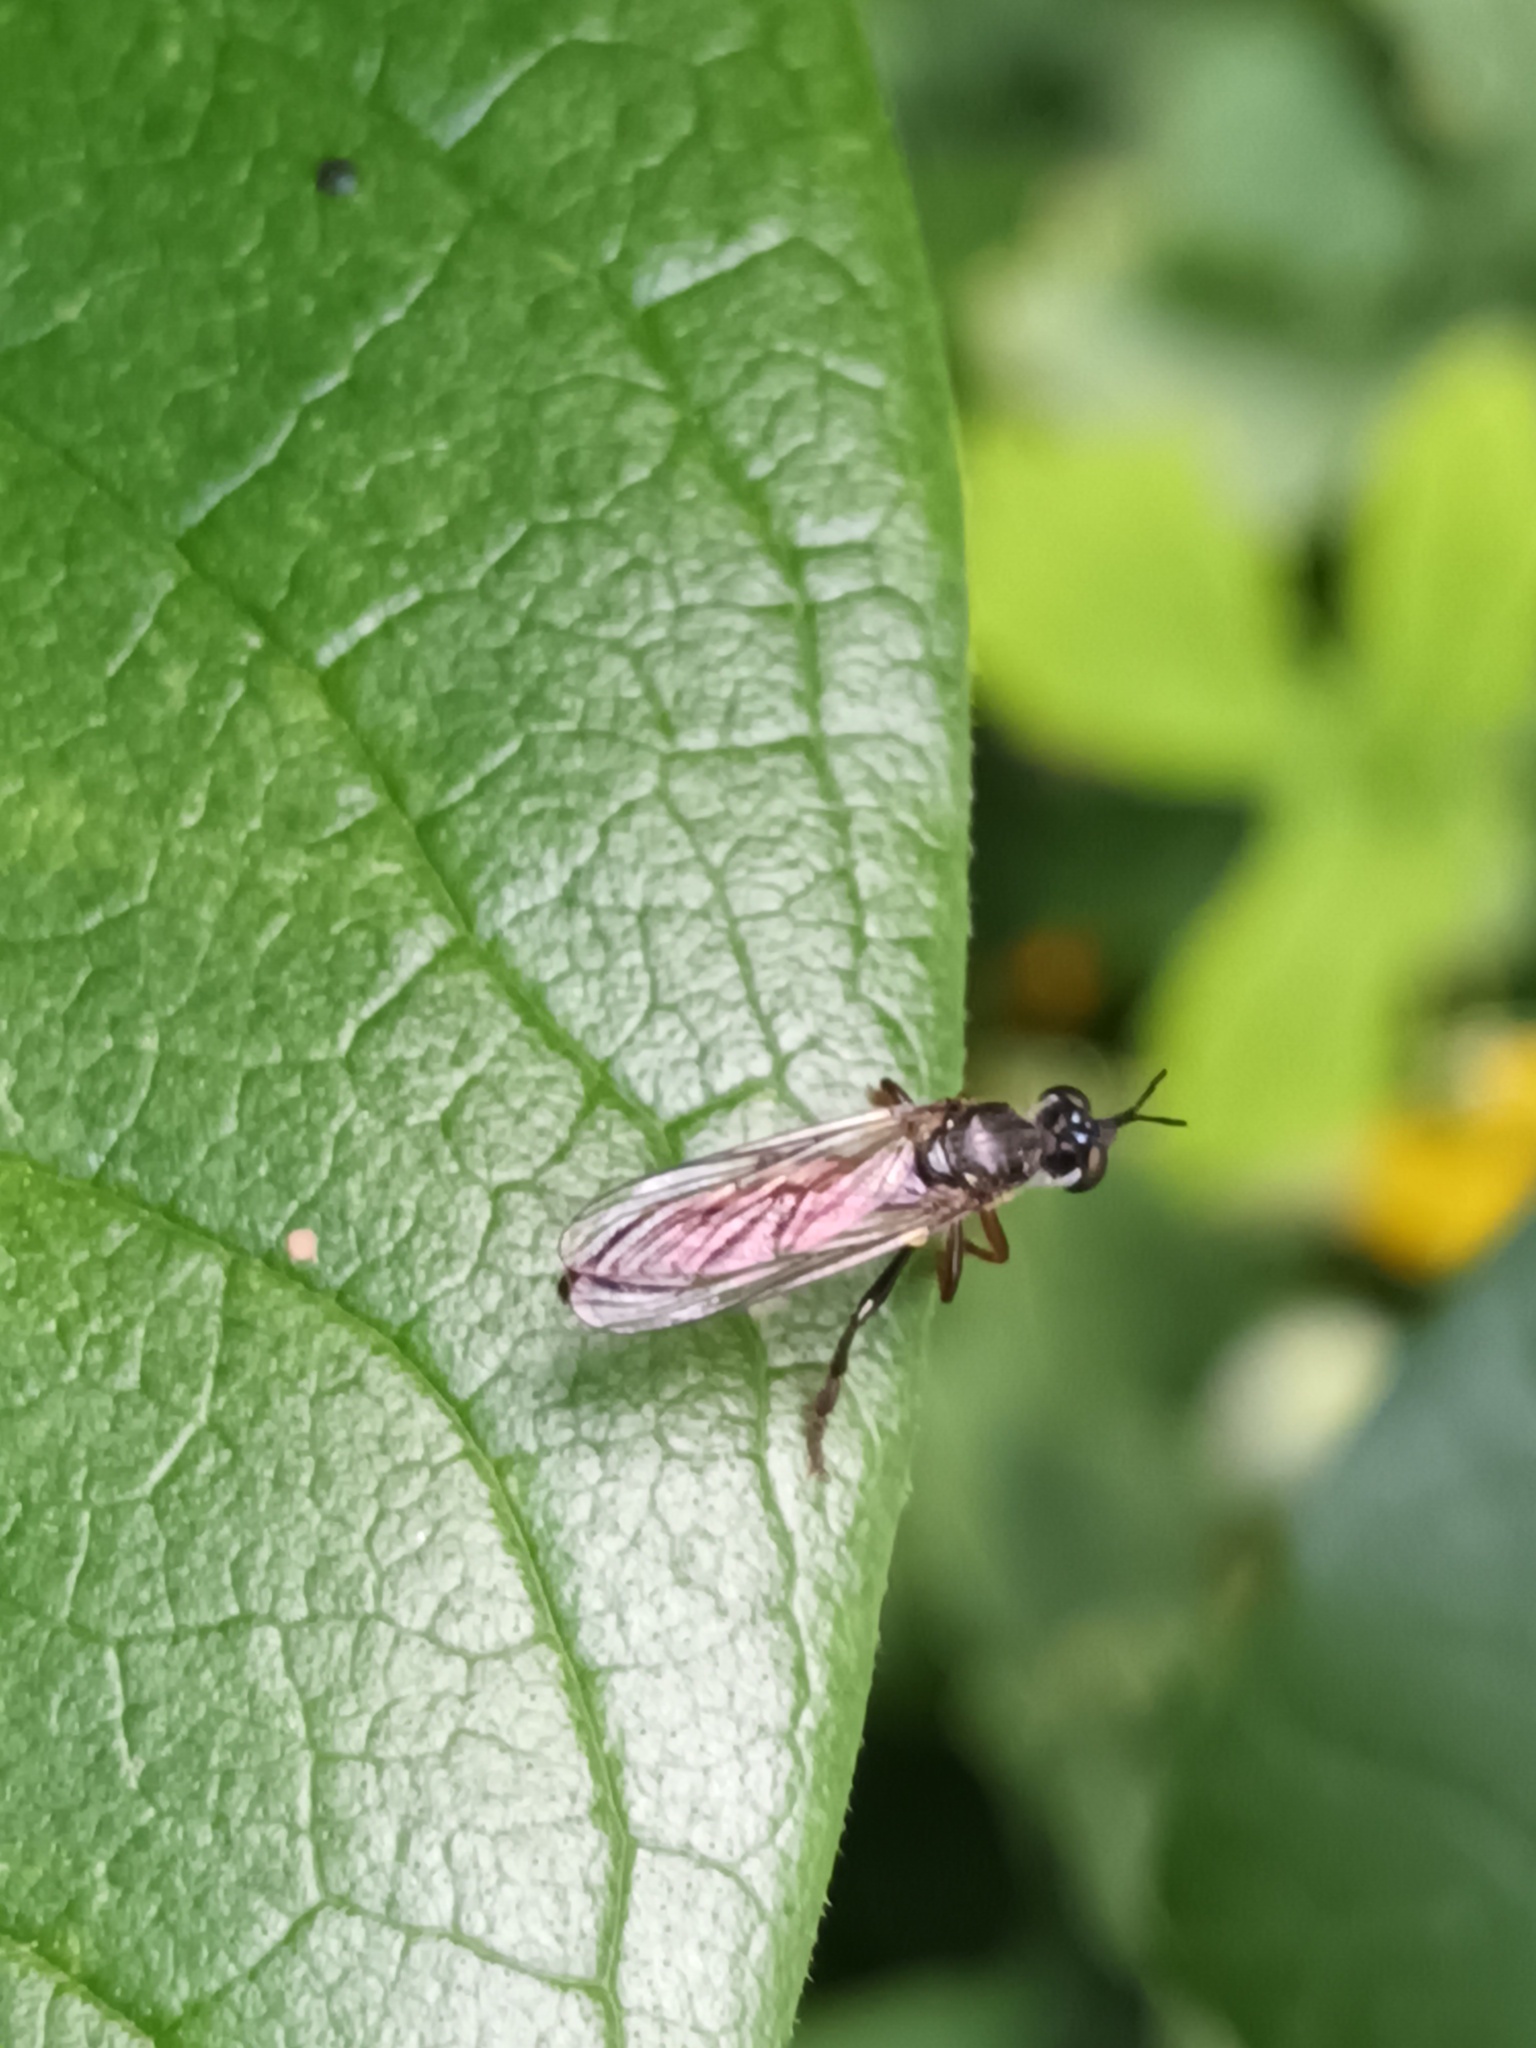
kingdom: Animalia
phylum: Arthropoda
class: Insecta
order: Diptera
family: Asilidae
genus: Dioctria
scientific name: Dioctria hyalipennis
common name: Stripe-legged robberfly
